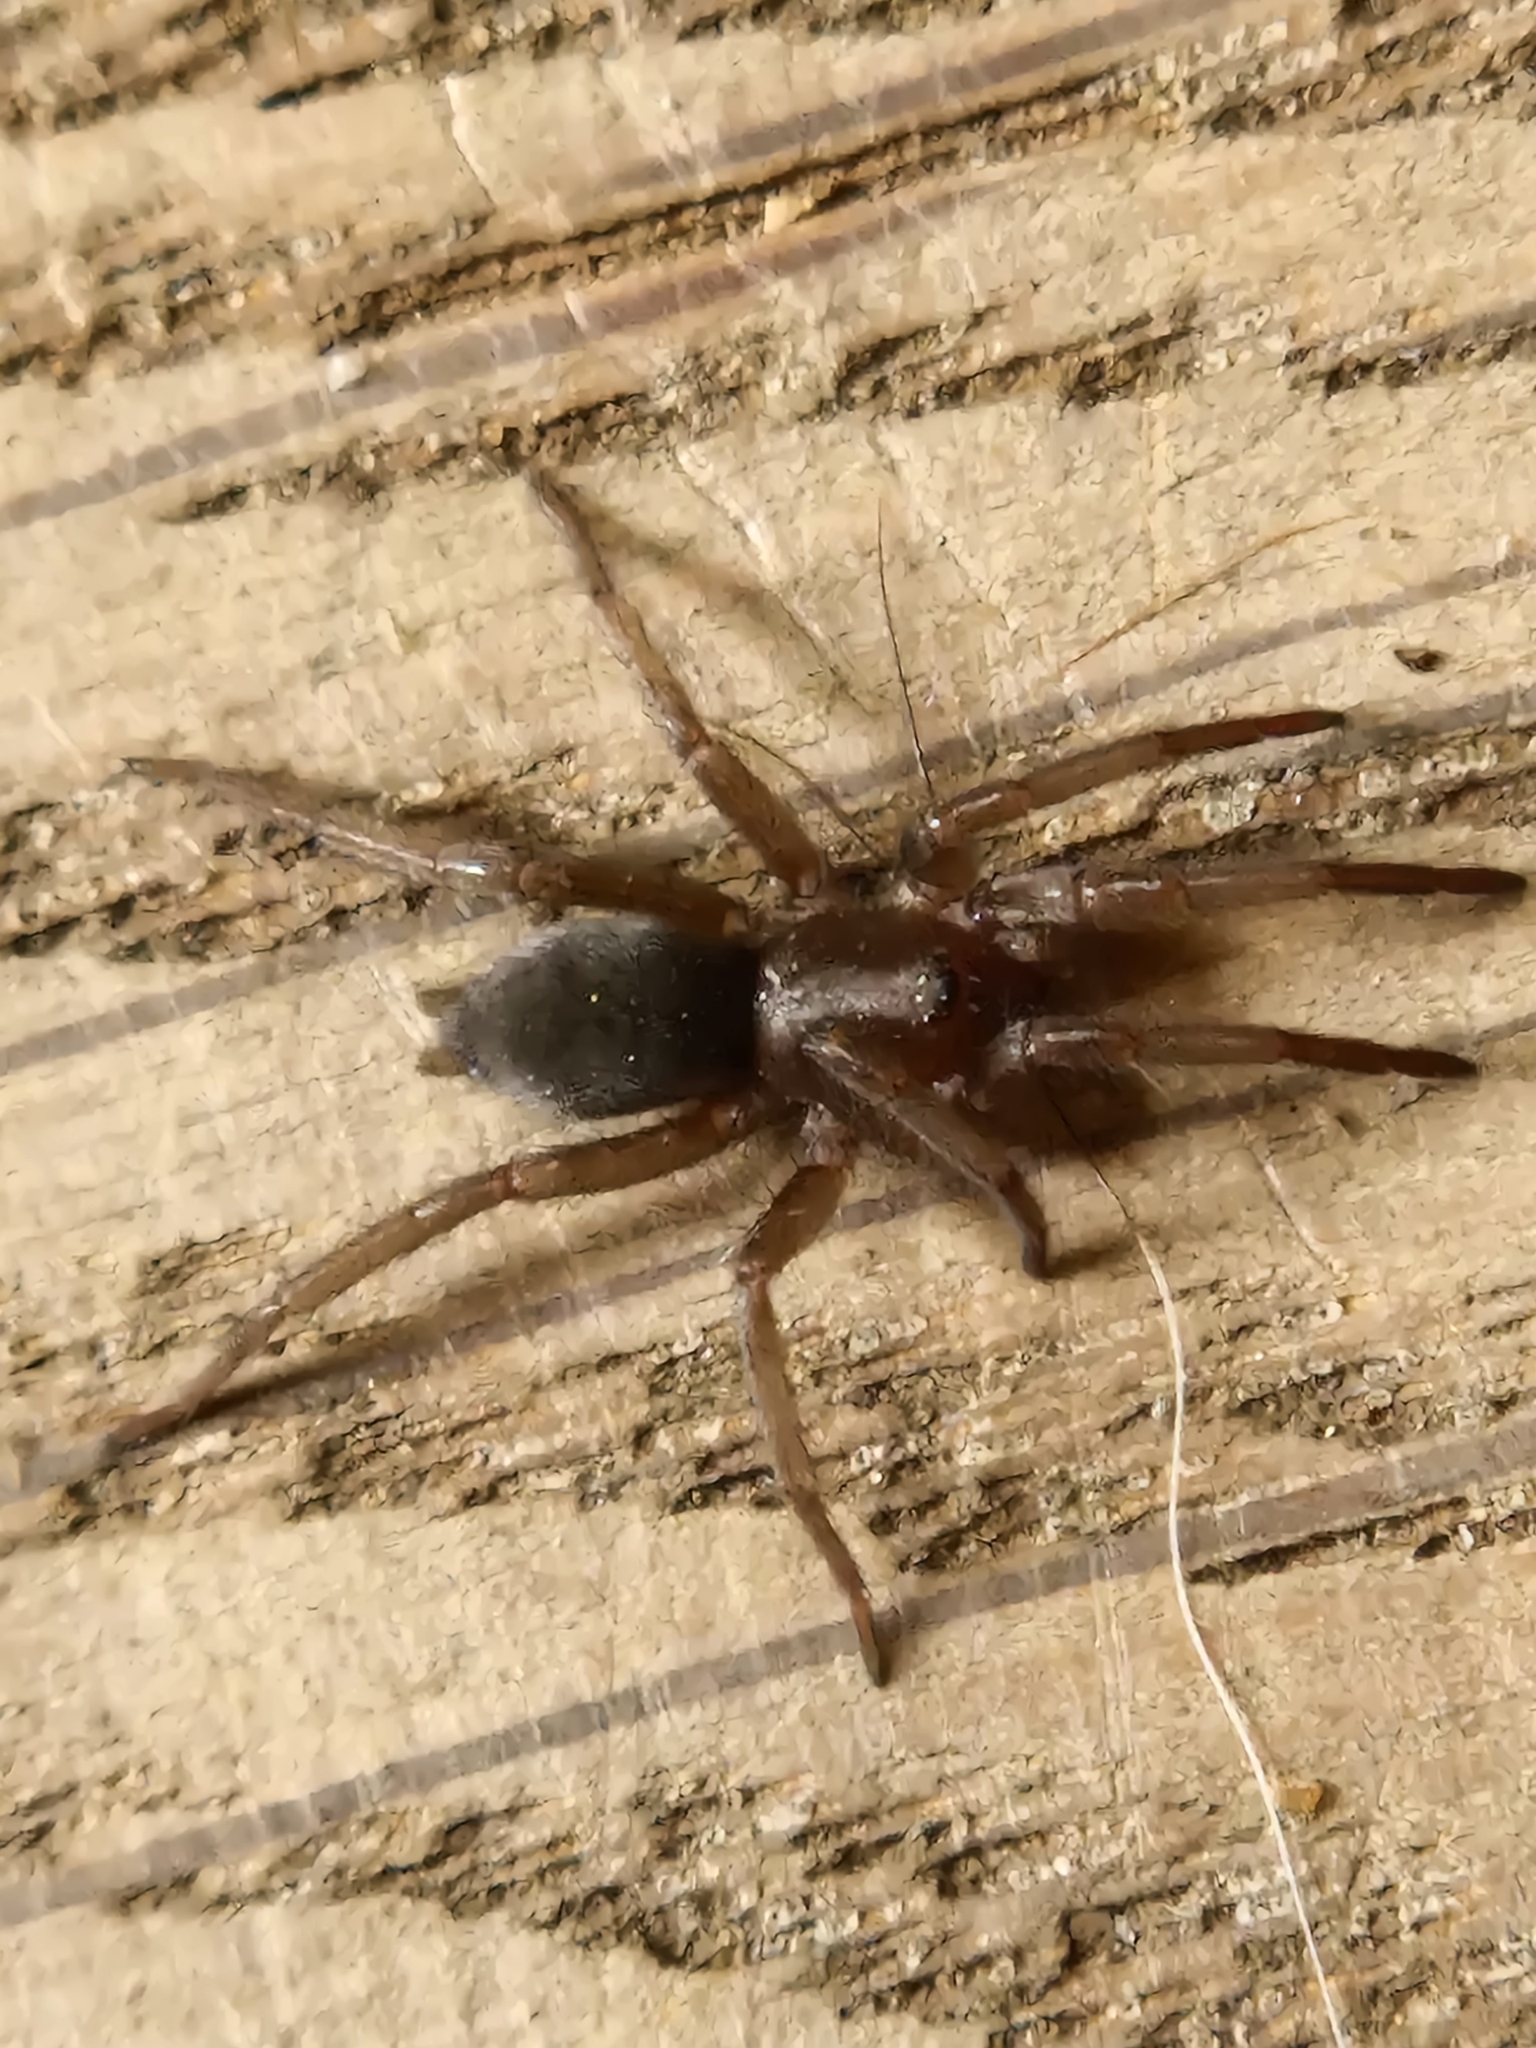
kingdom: Animalia
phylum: Arthropoda
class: Arachnida
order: Araneae
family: Gnaphosidae
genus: Scotophaeus
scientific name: Scotophaeus blackwalli
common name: Mouse spider
